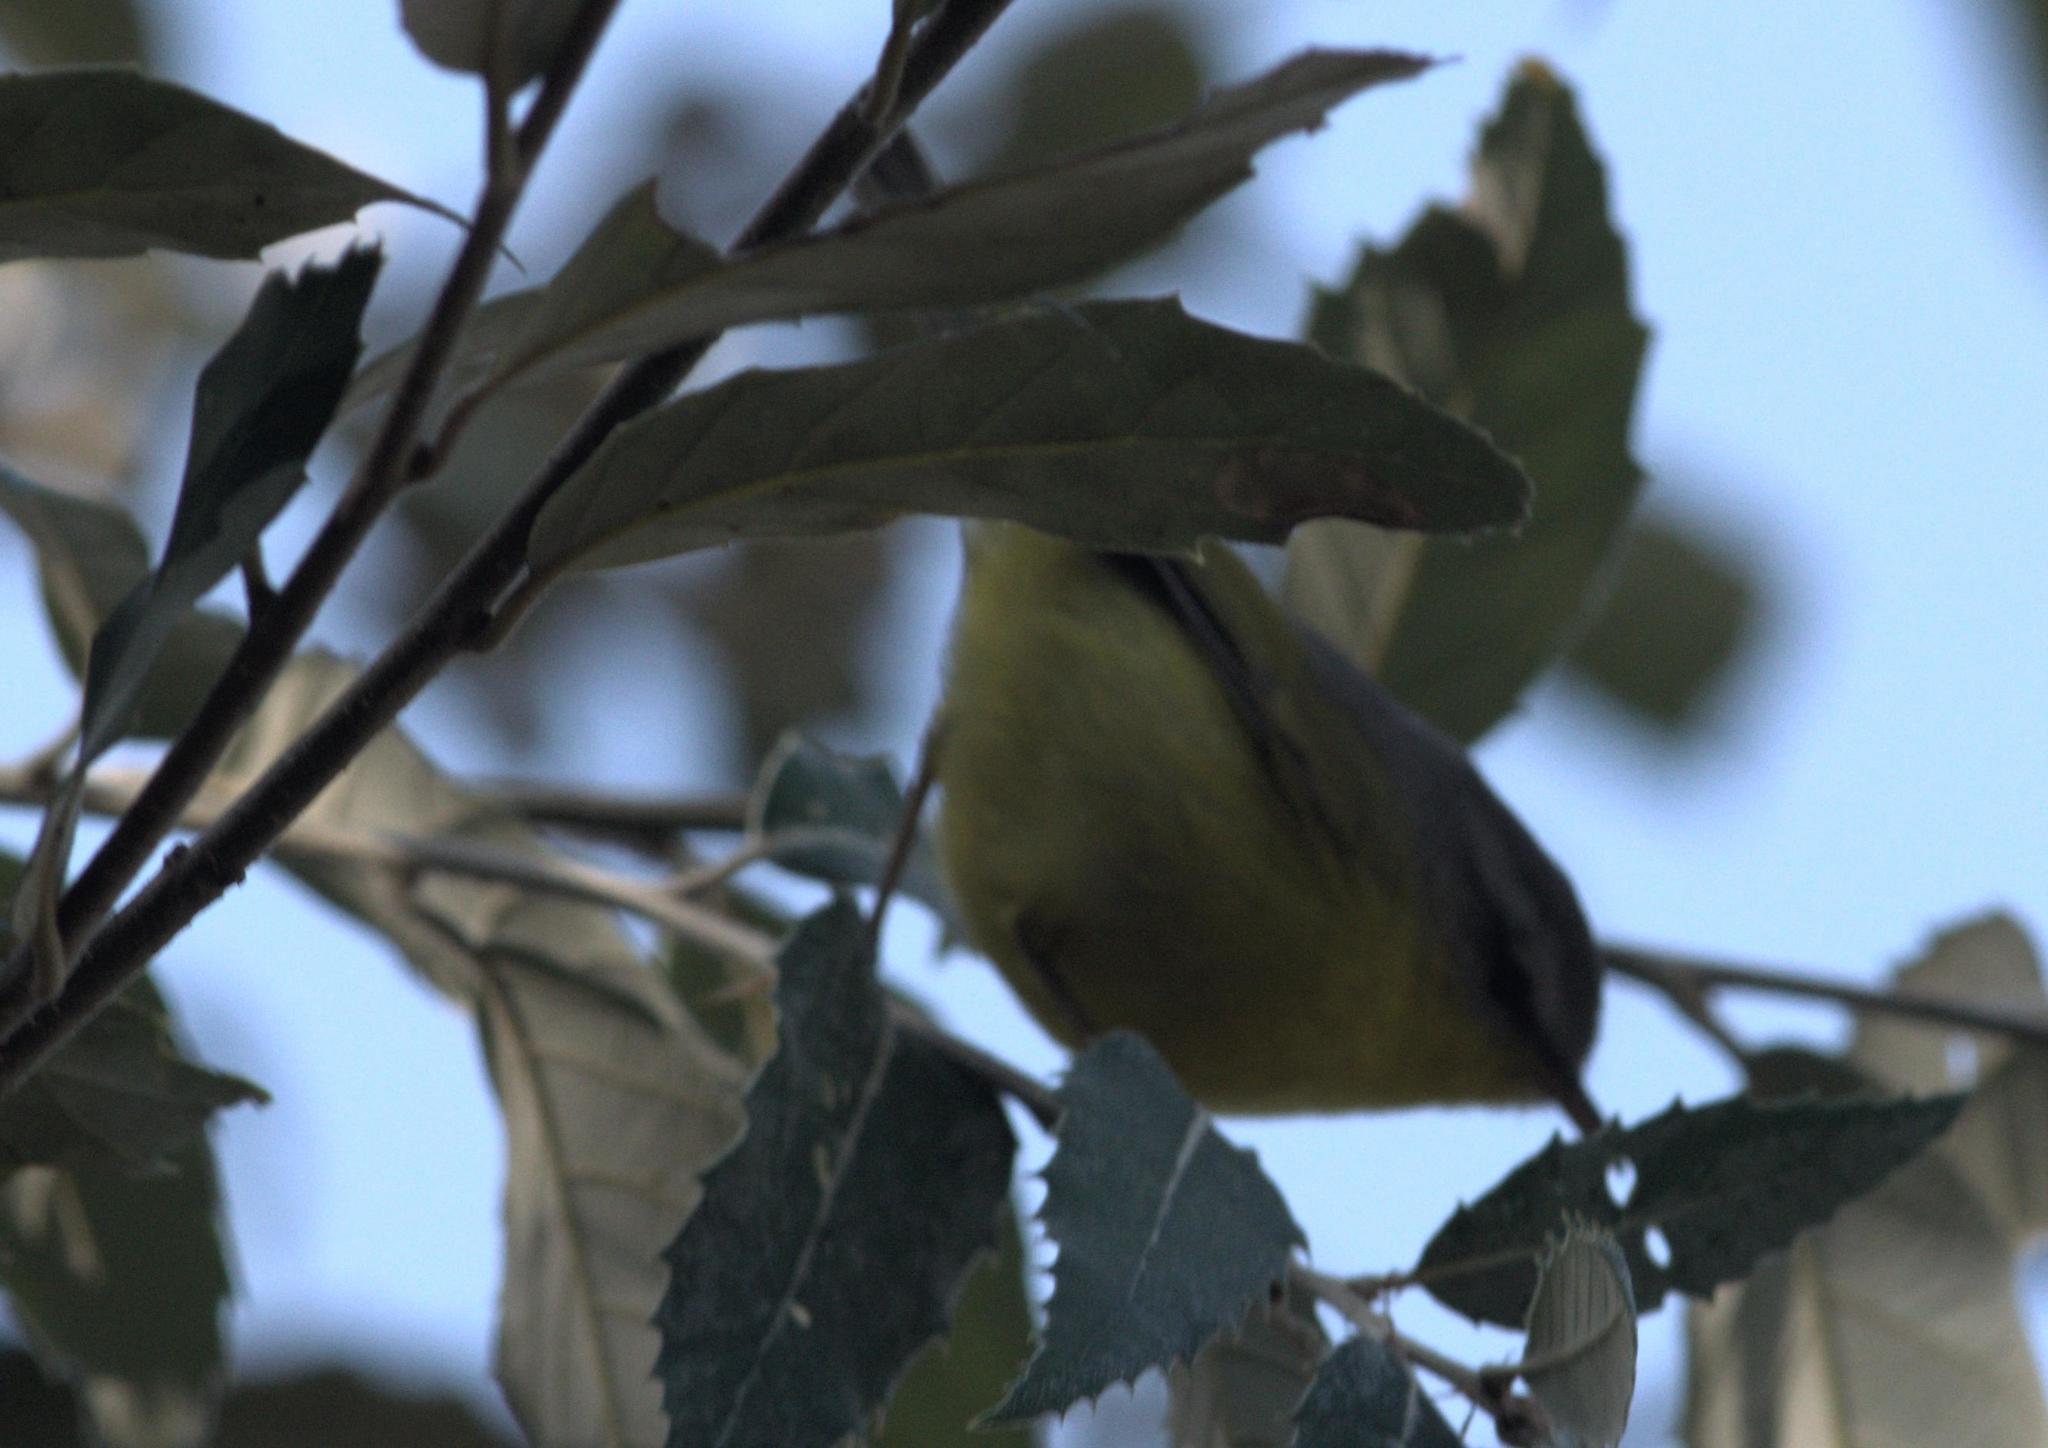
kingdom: Animalia
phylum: Chordata
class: Aves
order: Passeriformes
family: Phylloscopidae
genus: Phylloscopus
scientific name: Phylloscopus xanthoschistos
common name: Grey-hooded warbler
